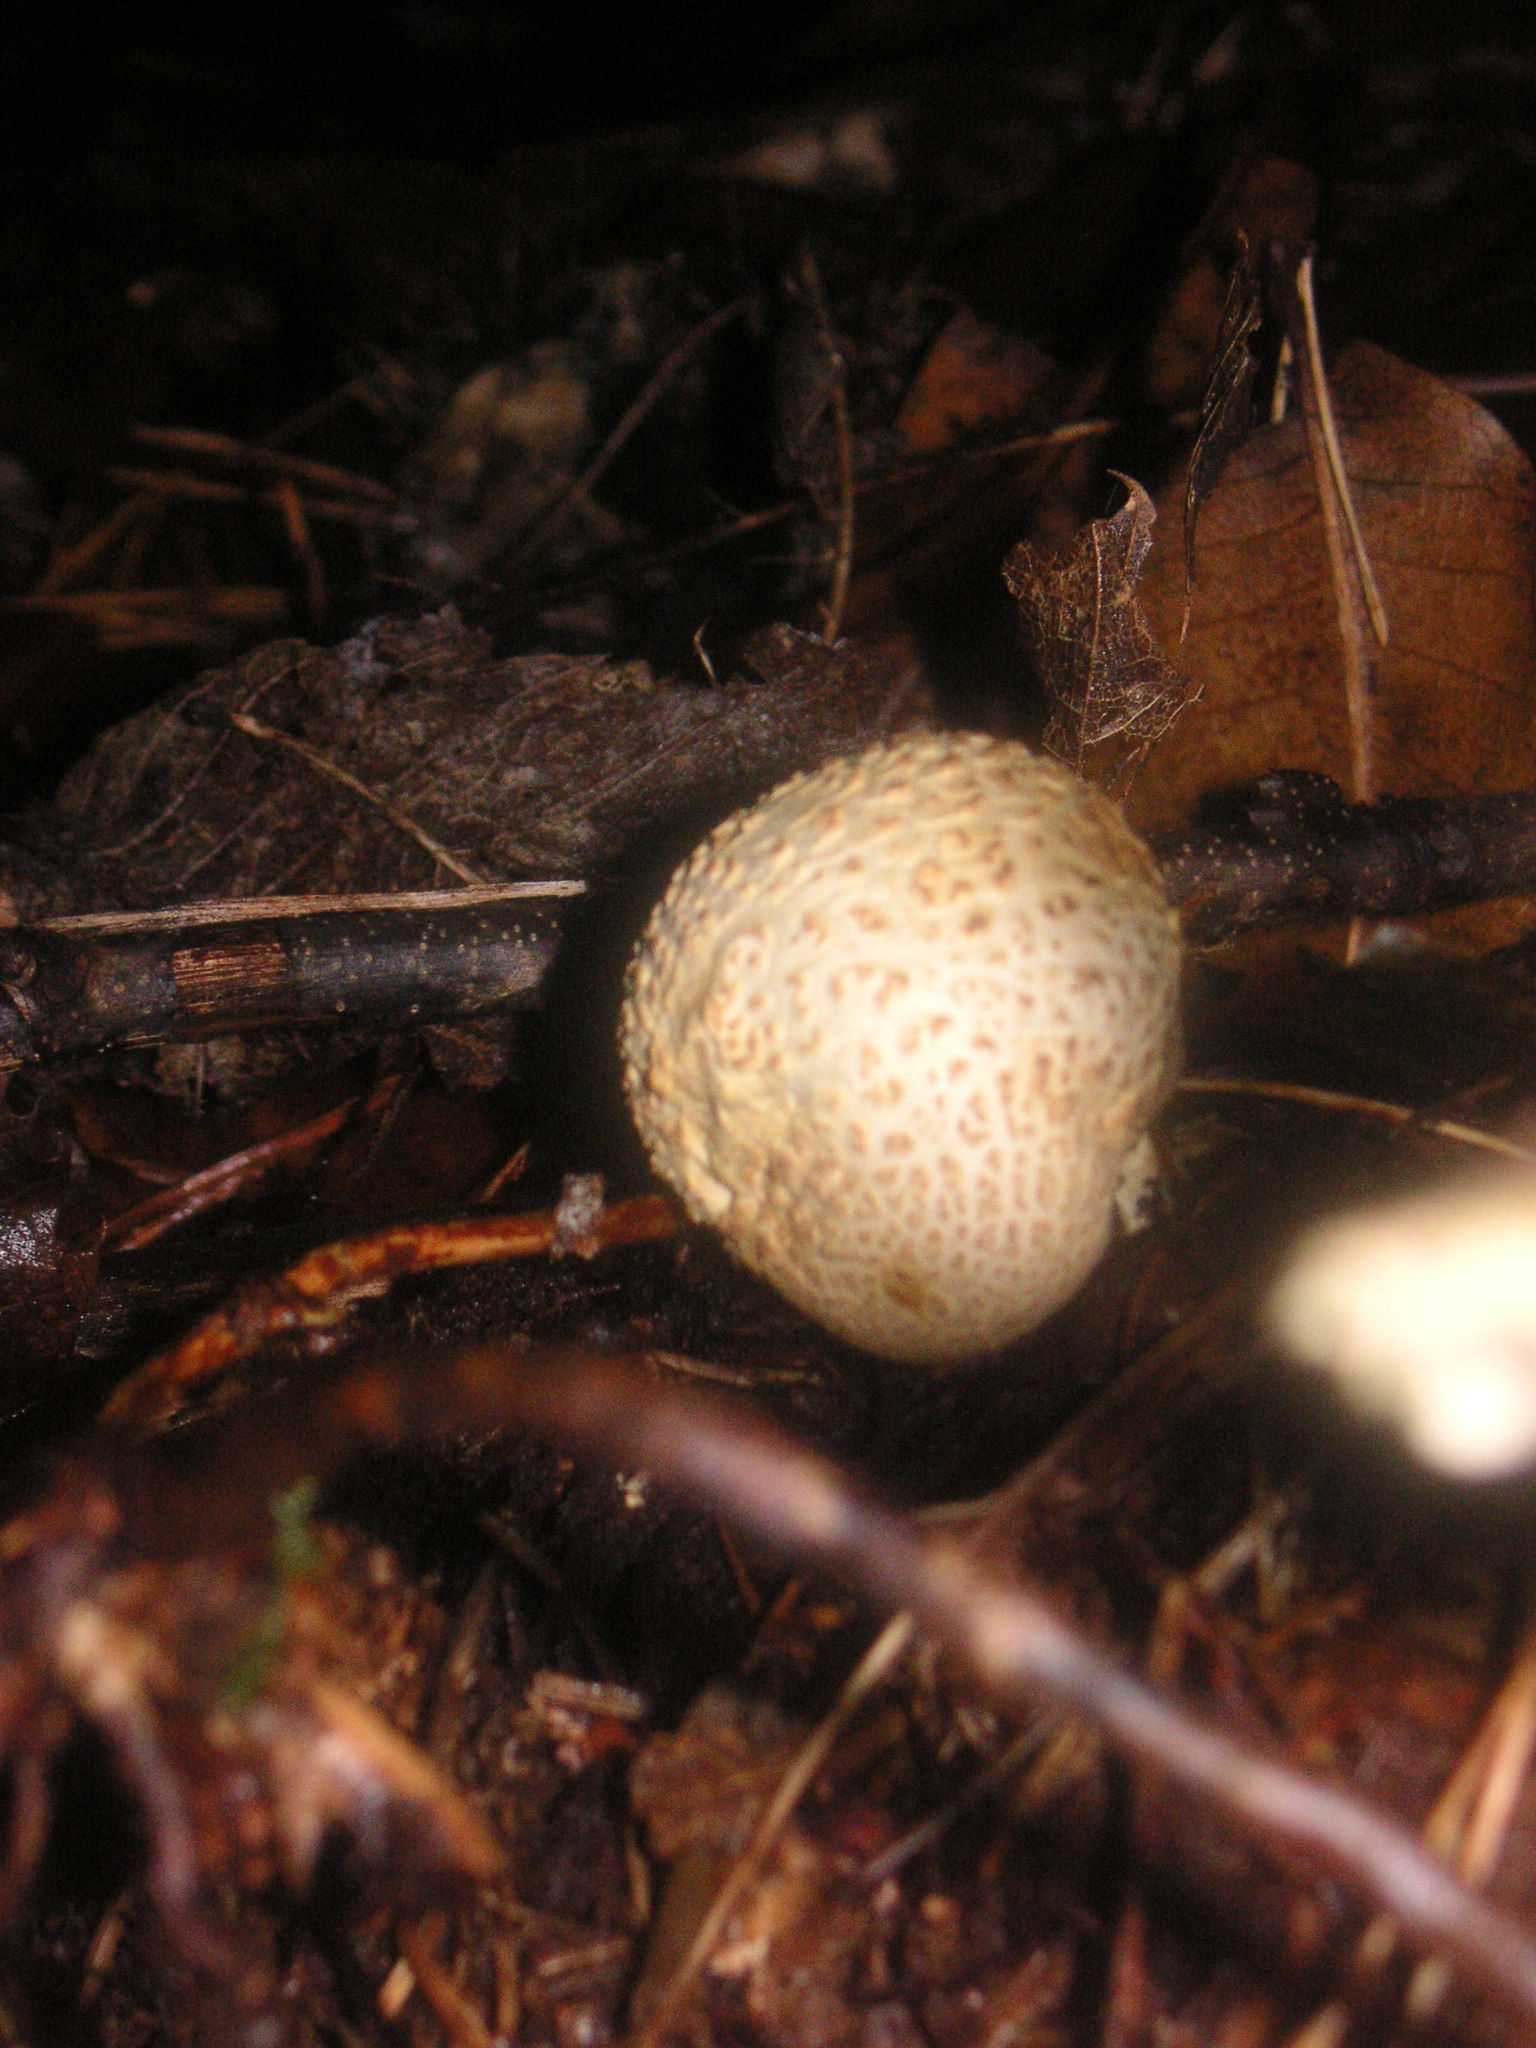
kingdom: Fungi
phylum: Basidiomycota
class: Agaricomycetes
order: Boletales
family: Sclerodermataceae
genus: Scleroderma
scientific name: Scleroderma citrinum
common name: Common earthball
